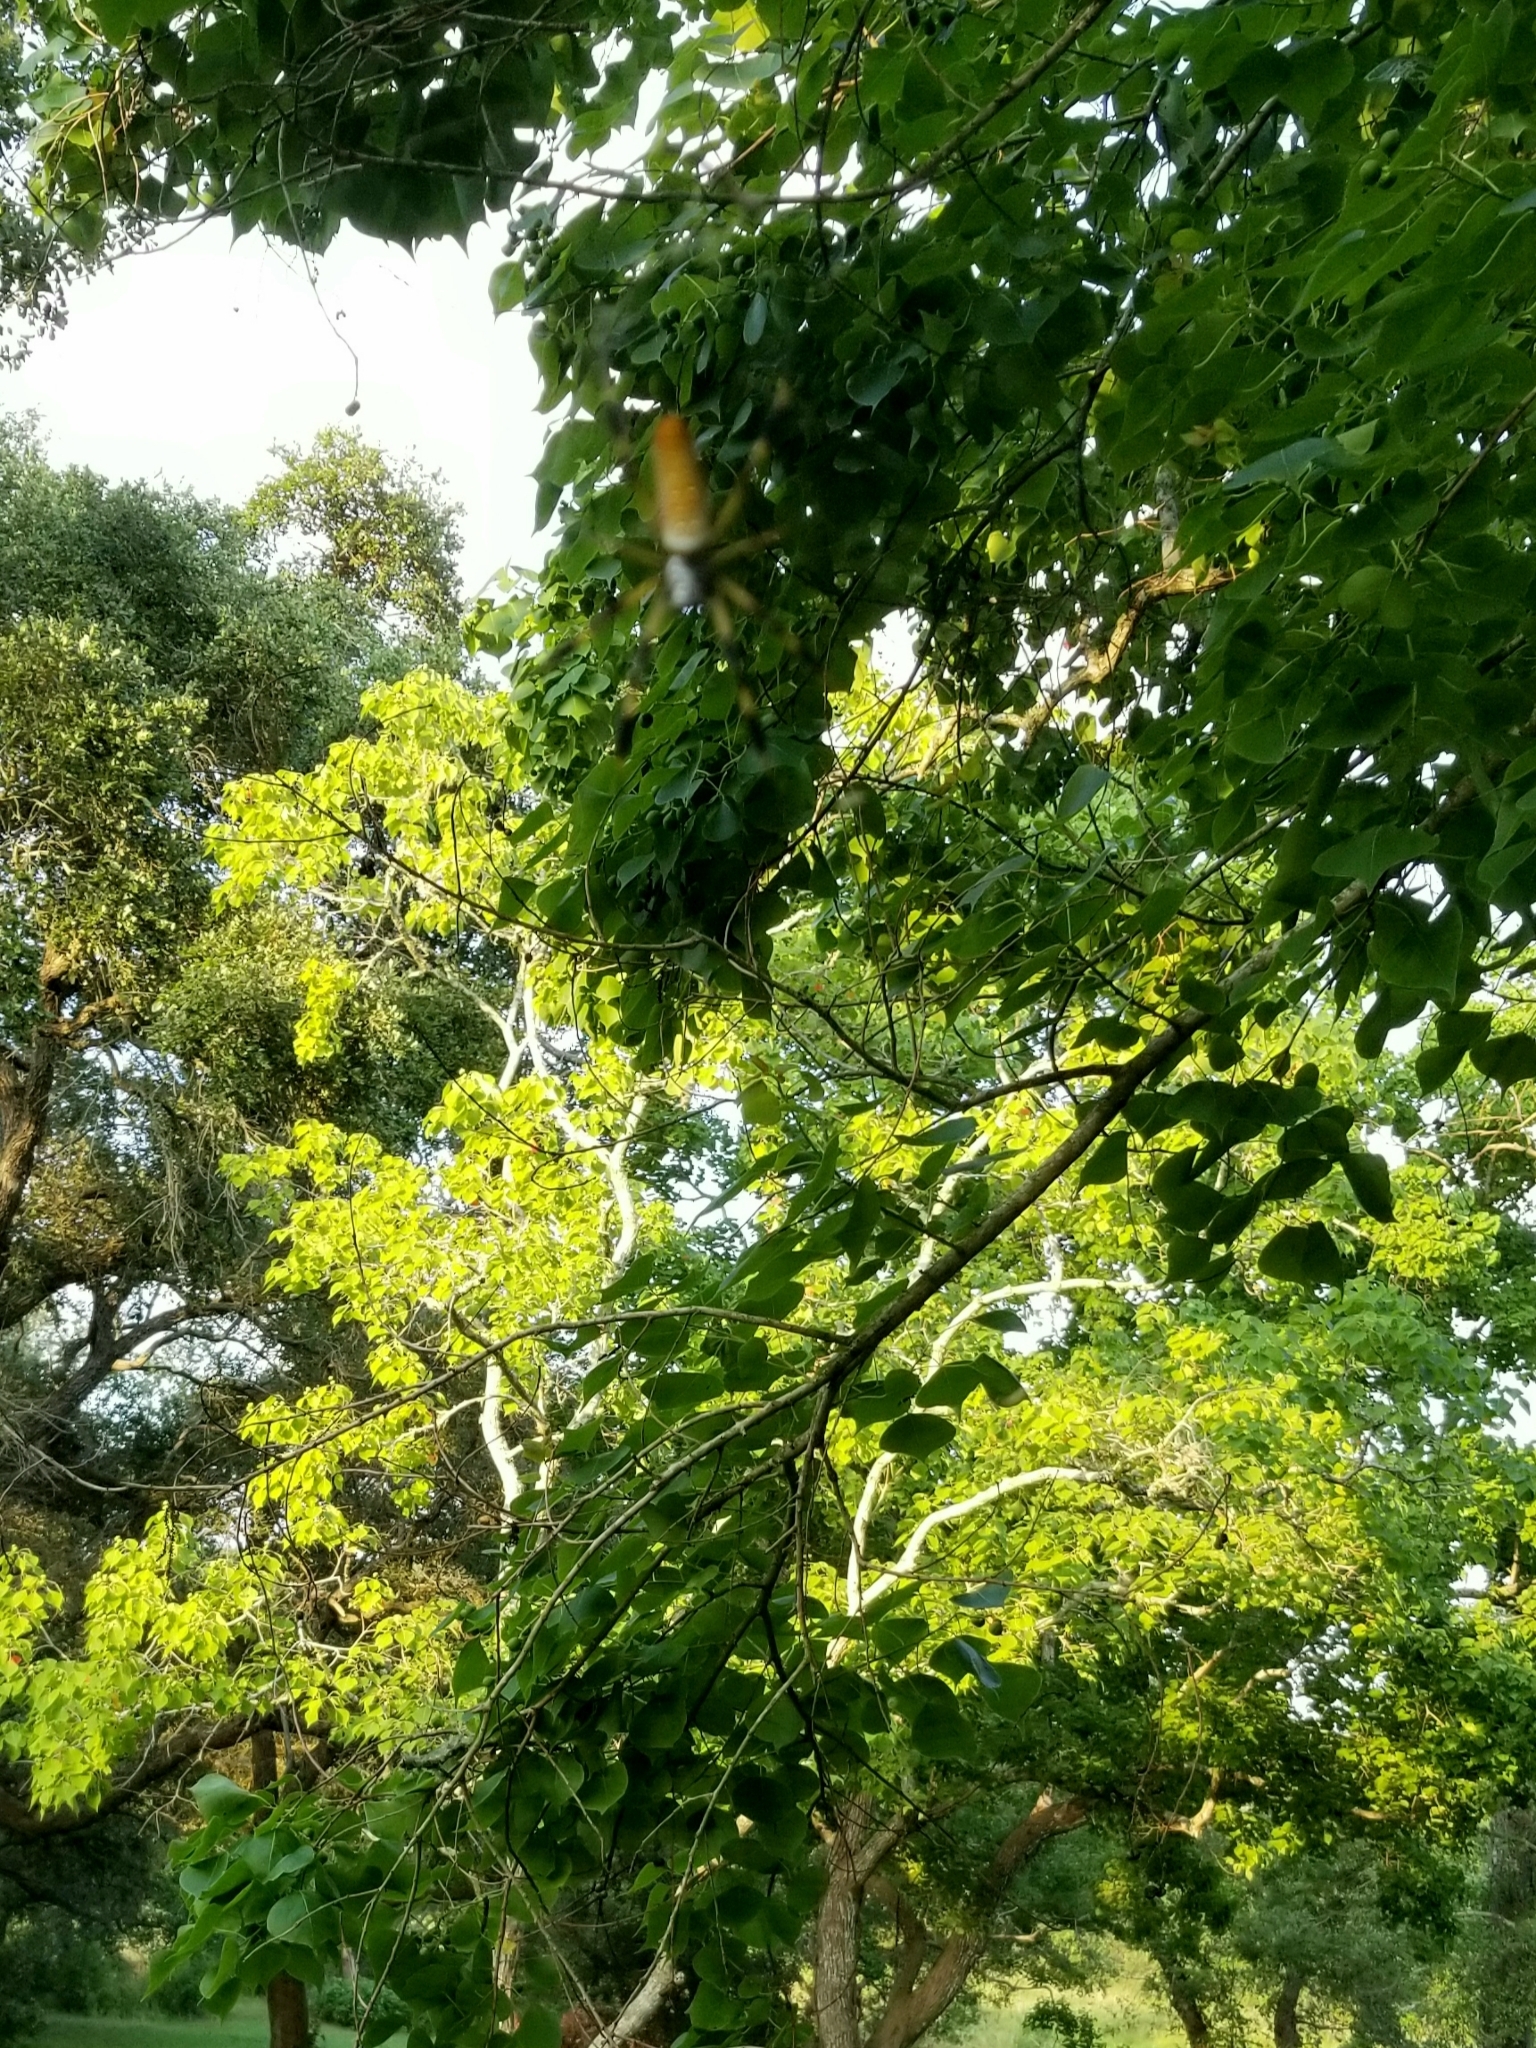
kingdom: Animalia
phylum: Arthropoda
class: Arachnida
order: Araneae
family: Araneidae
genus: Trichonephila
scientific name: Trichonephila clavipes
